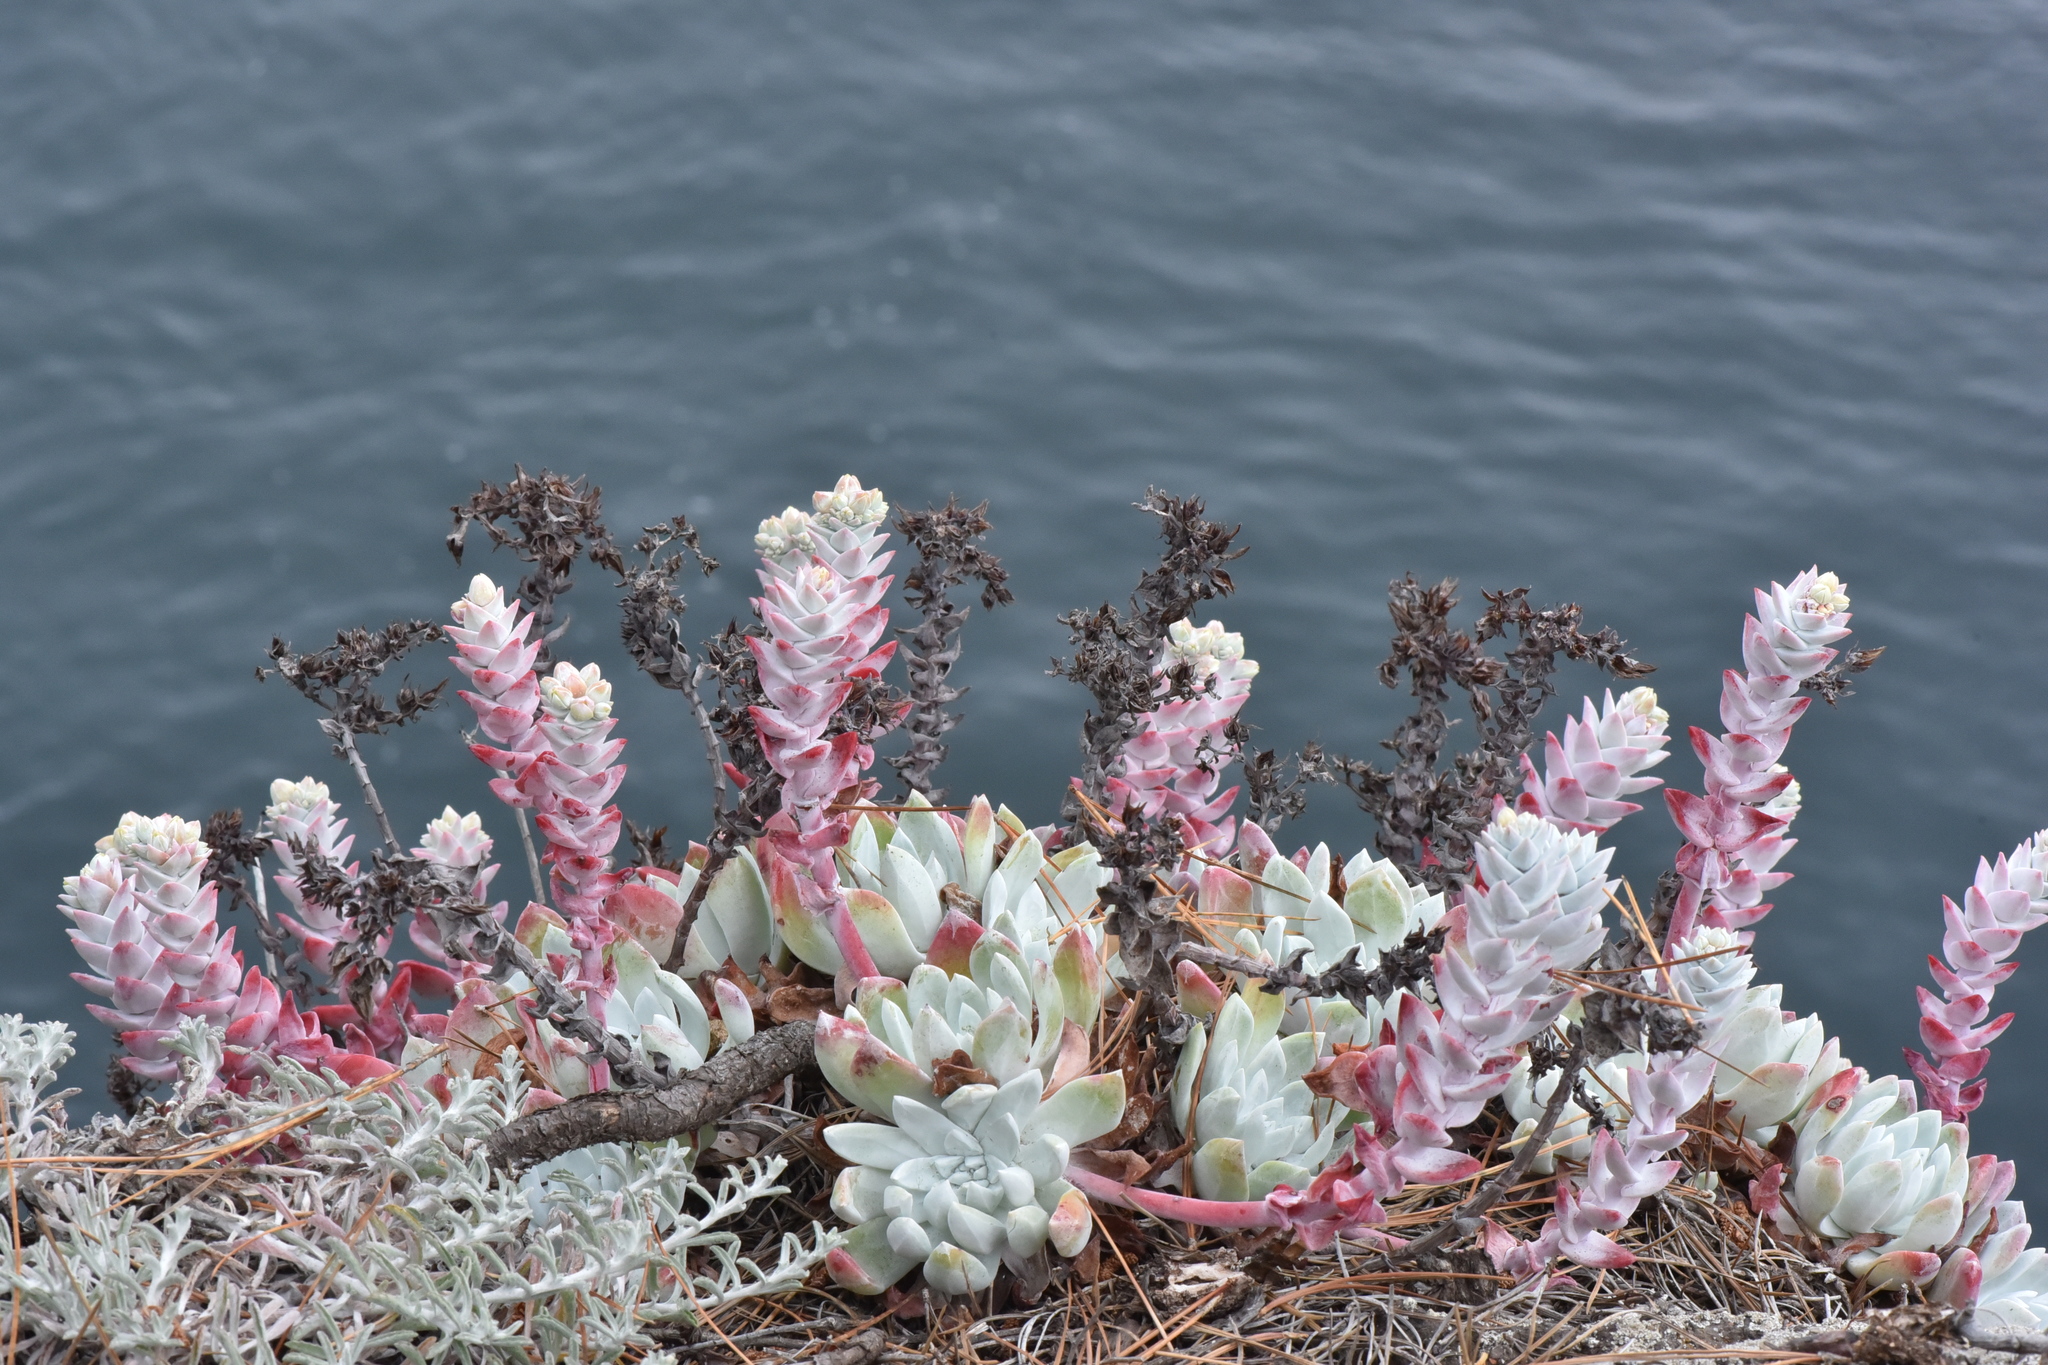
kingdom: Plantae
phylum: Tracheophyta
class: Magnoliopsida
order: Saxifragales
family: Crassulaceae
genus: Dudleya
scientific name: Dudleya farinosa
